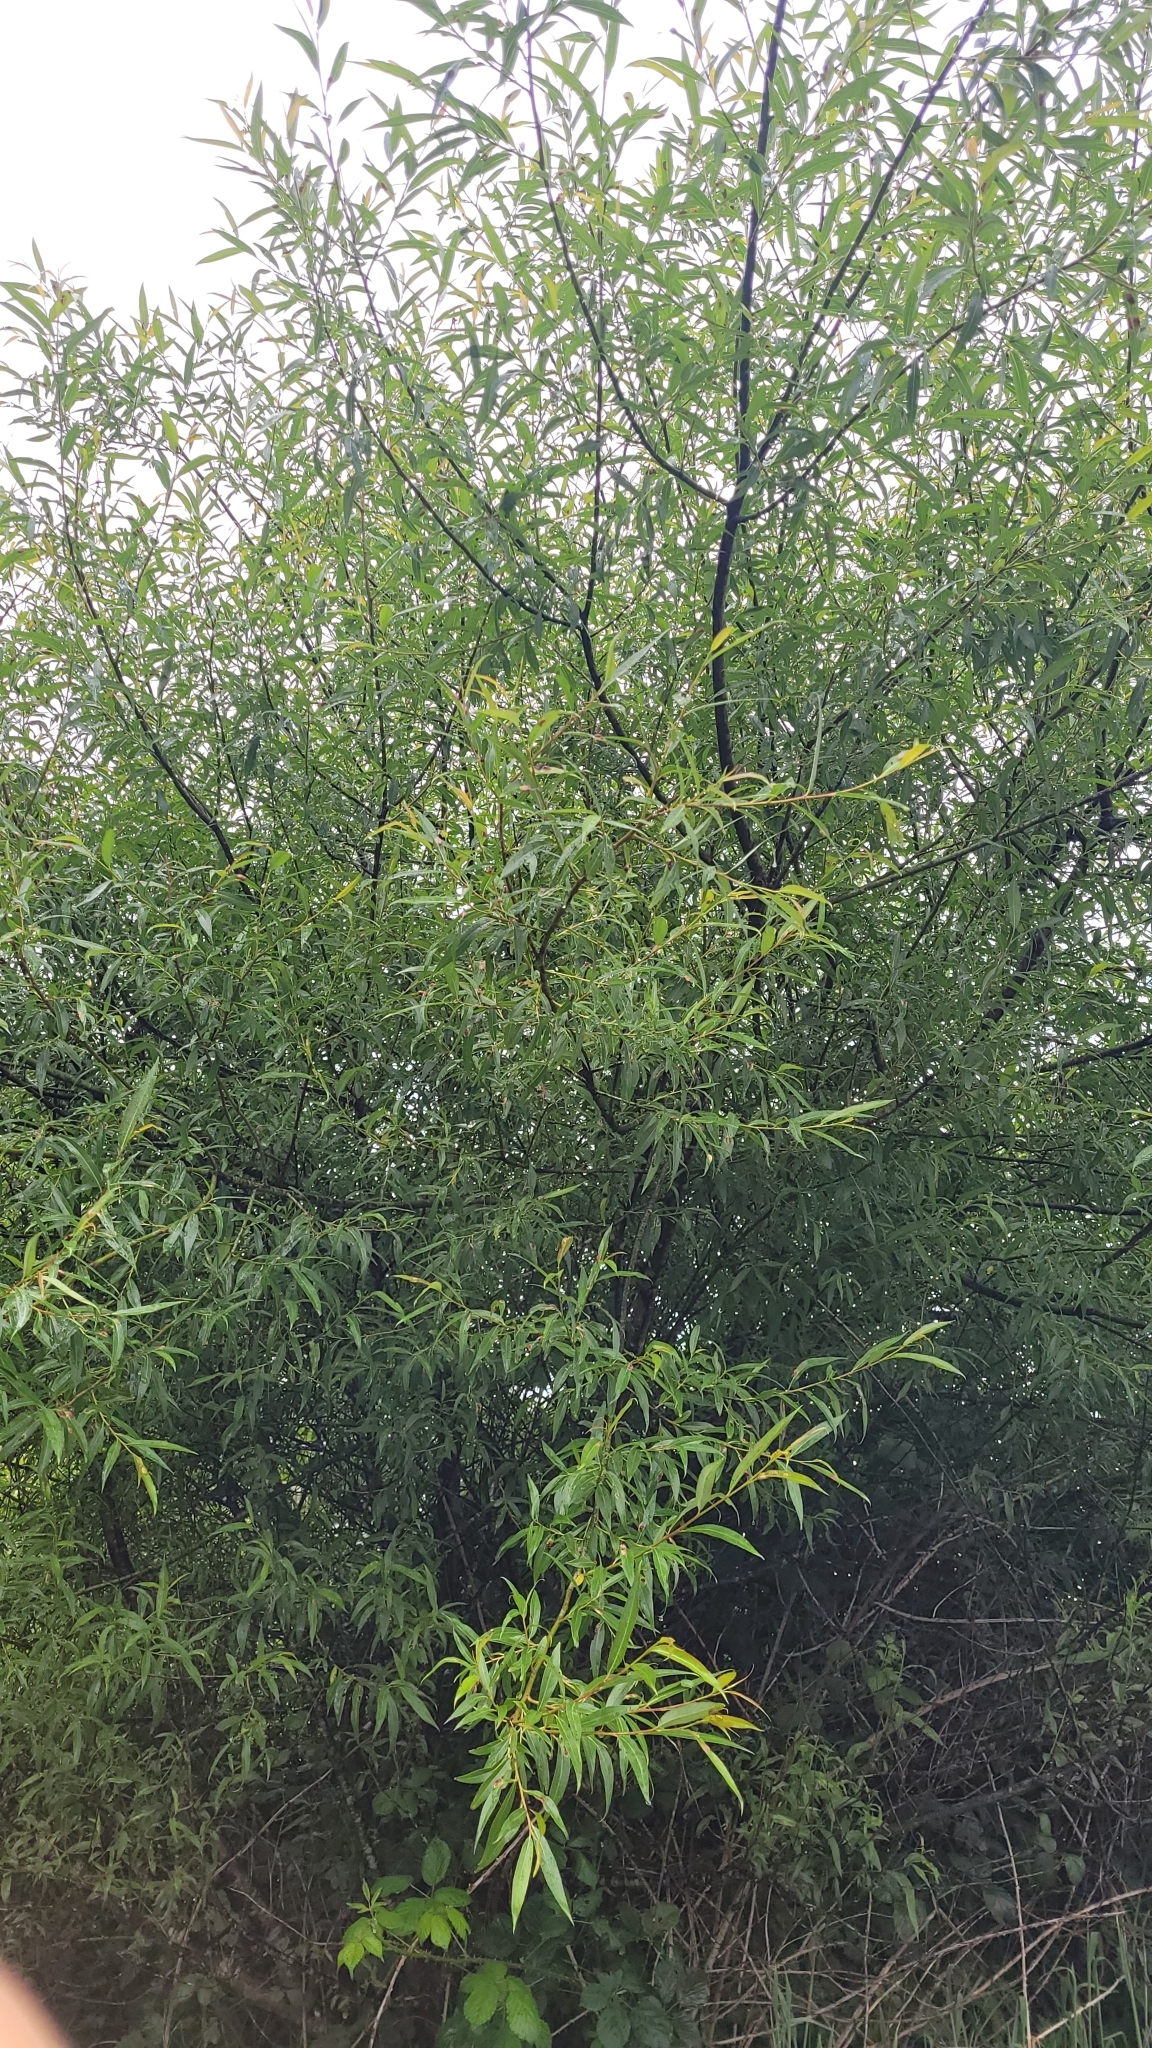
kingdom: Plantae
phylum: Tracheophyta
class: Magnoliopsida
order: Malpighiales
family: Salicaceae
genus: Salix
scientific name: Salix fragilis
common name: Crack willow
